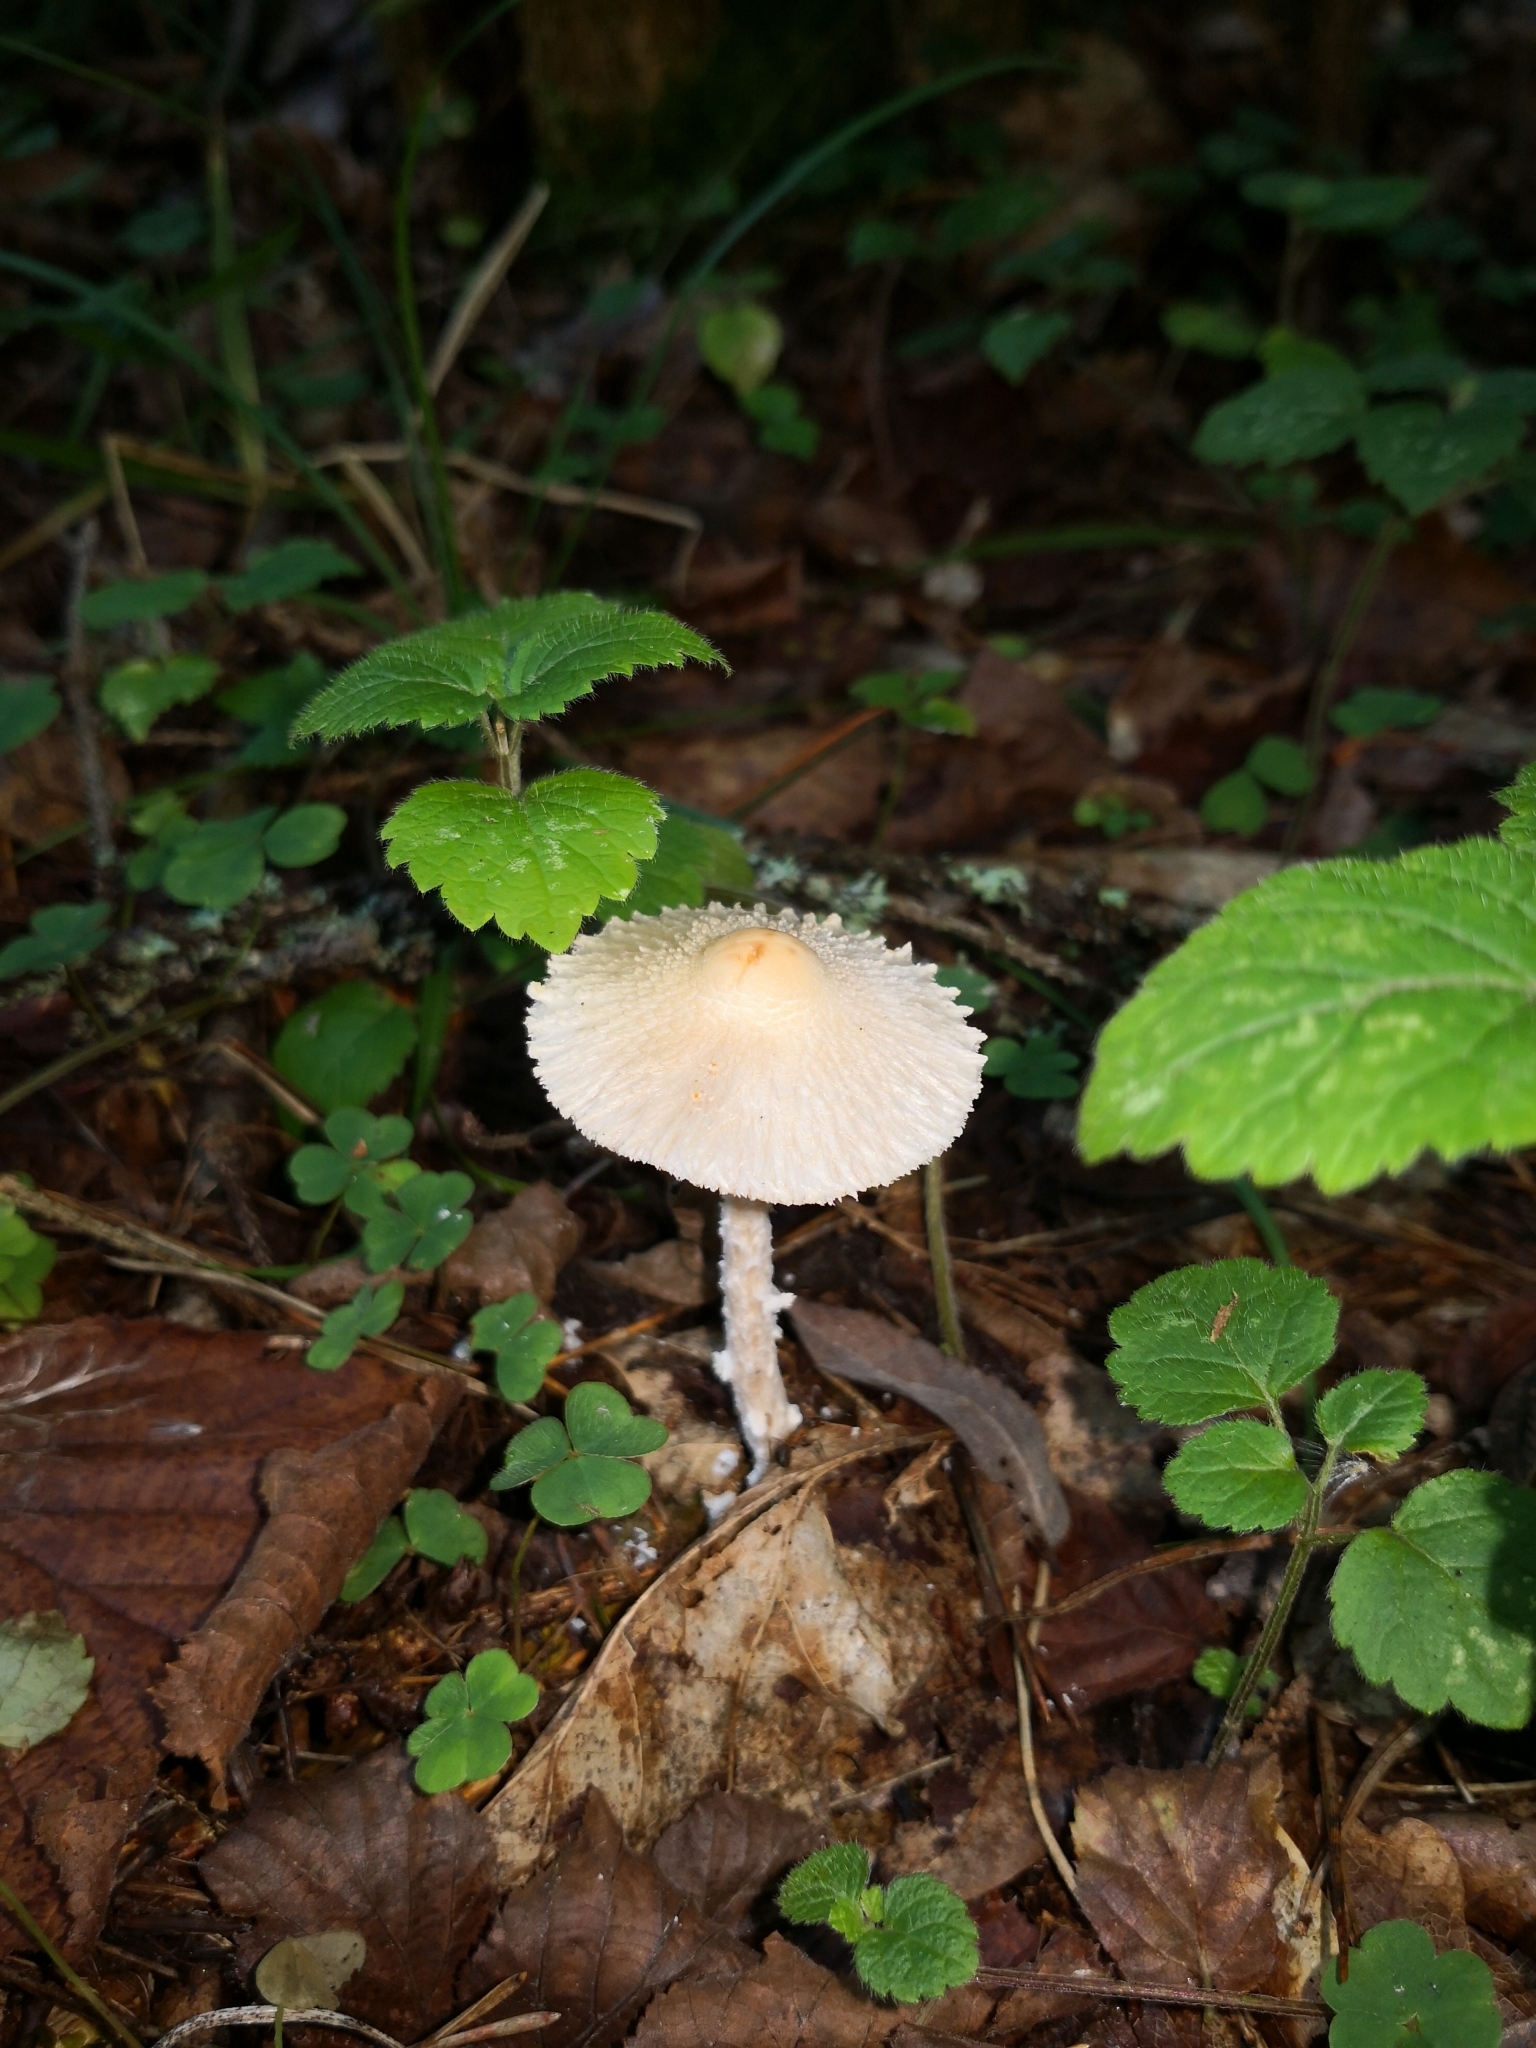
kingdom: Fungi
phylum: Basidiomycota
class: Agaricomycetes
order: Agaricales
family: Agaricaceae
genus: Lepiota
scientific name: Lepiota clypeolaria
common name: Shield dapperling
